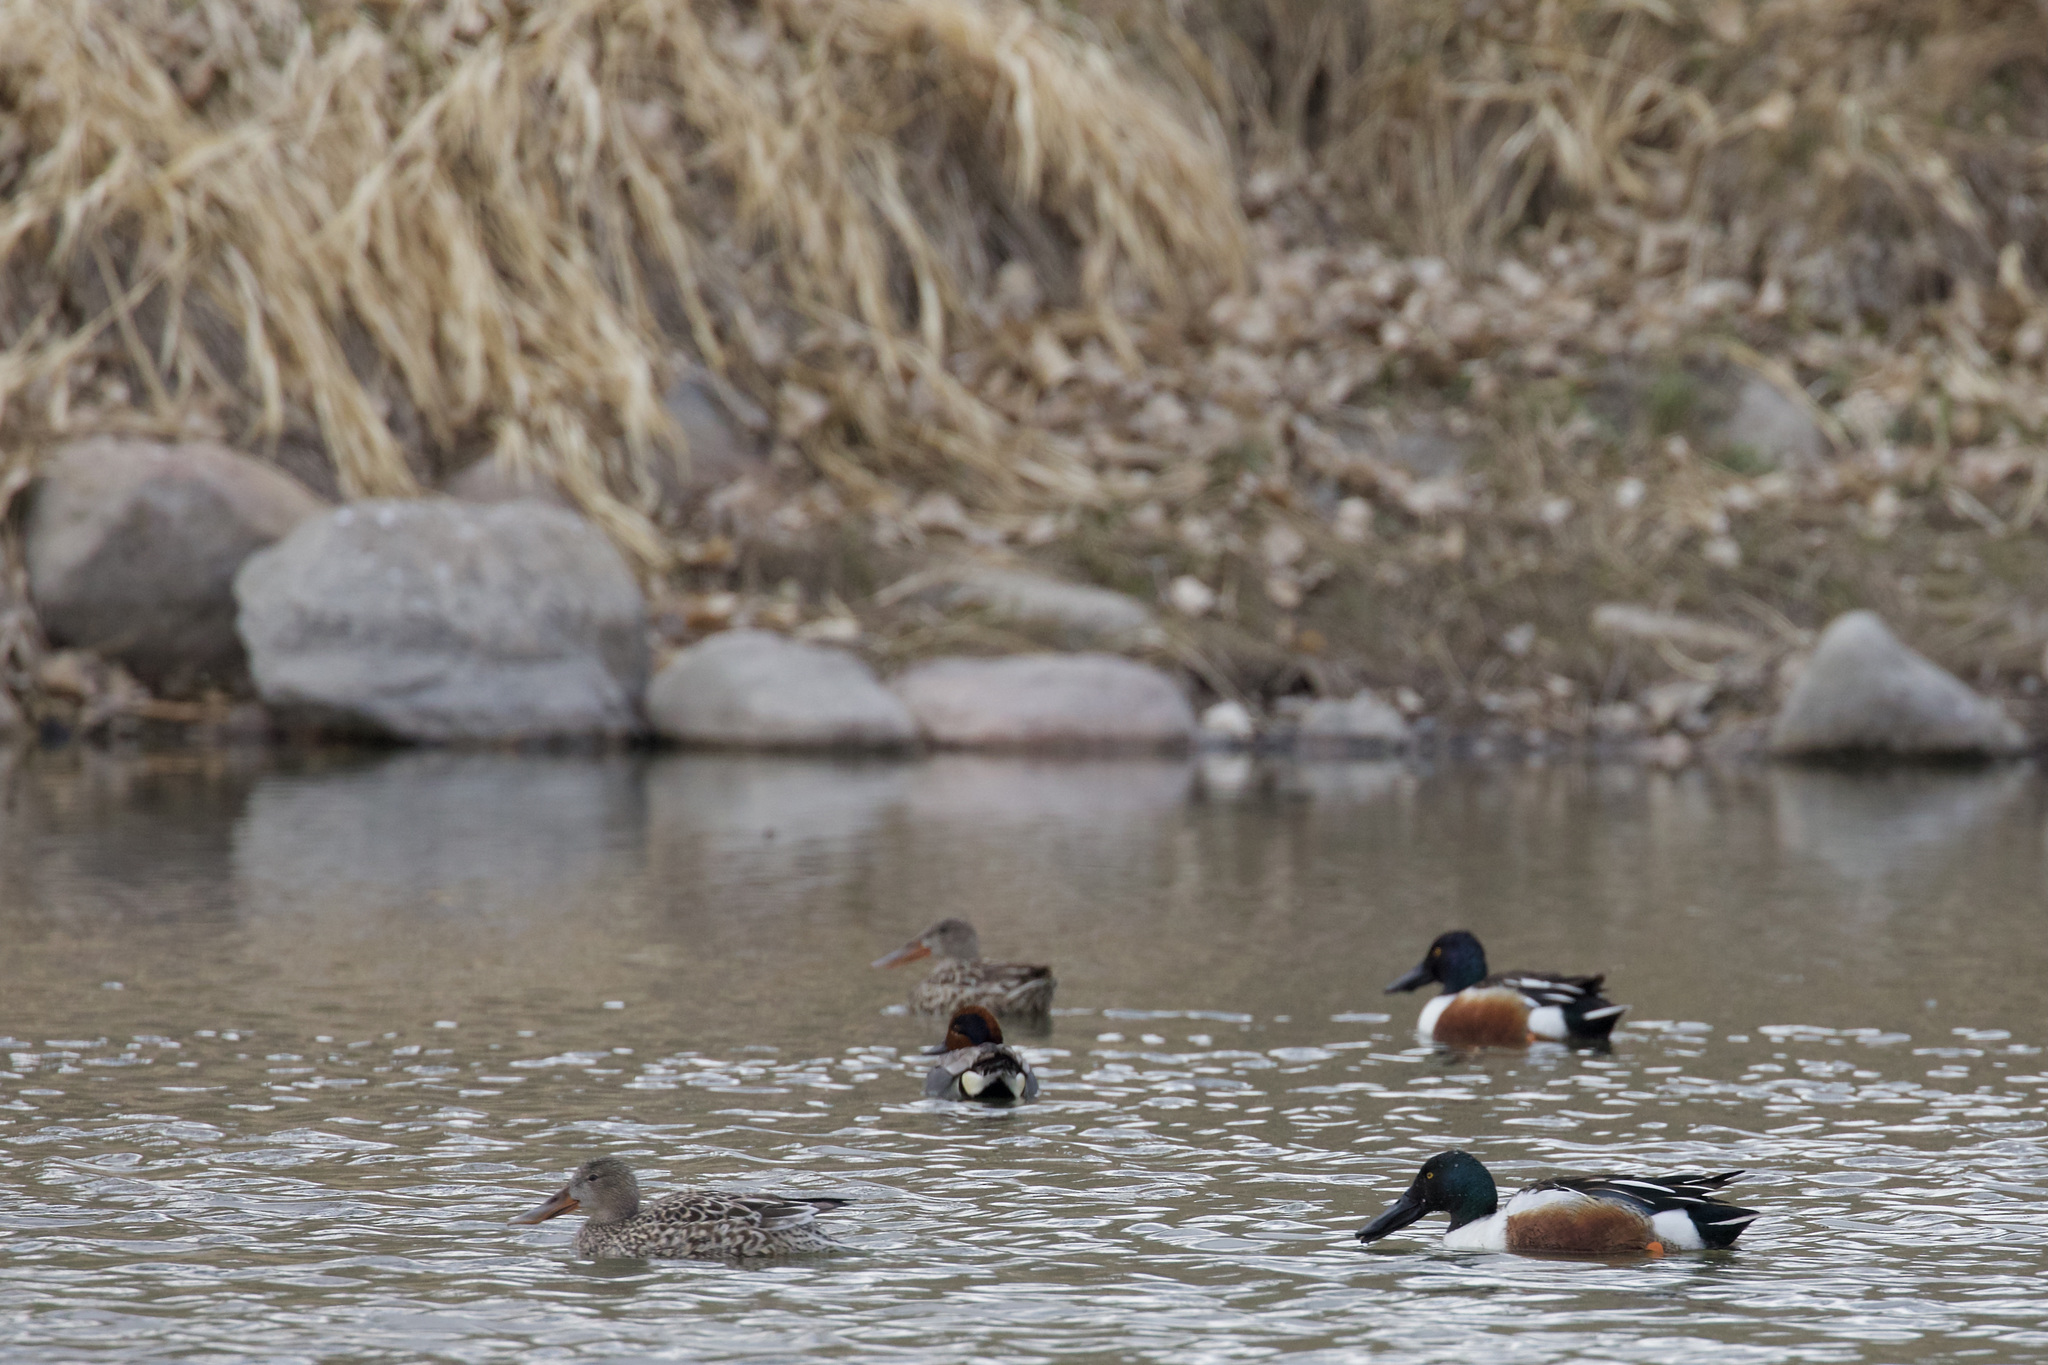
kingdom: Animalia
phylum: Chordata
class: Aves
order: Anseriformes
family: Anatidae
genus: Spatula
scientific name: Spatula clypeata
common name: Northern shoveler
